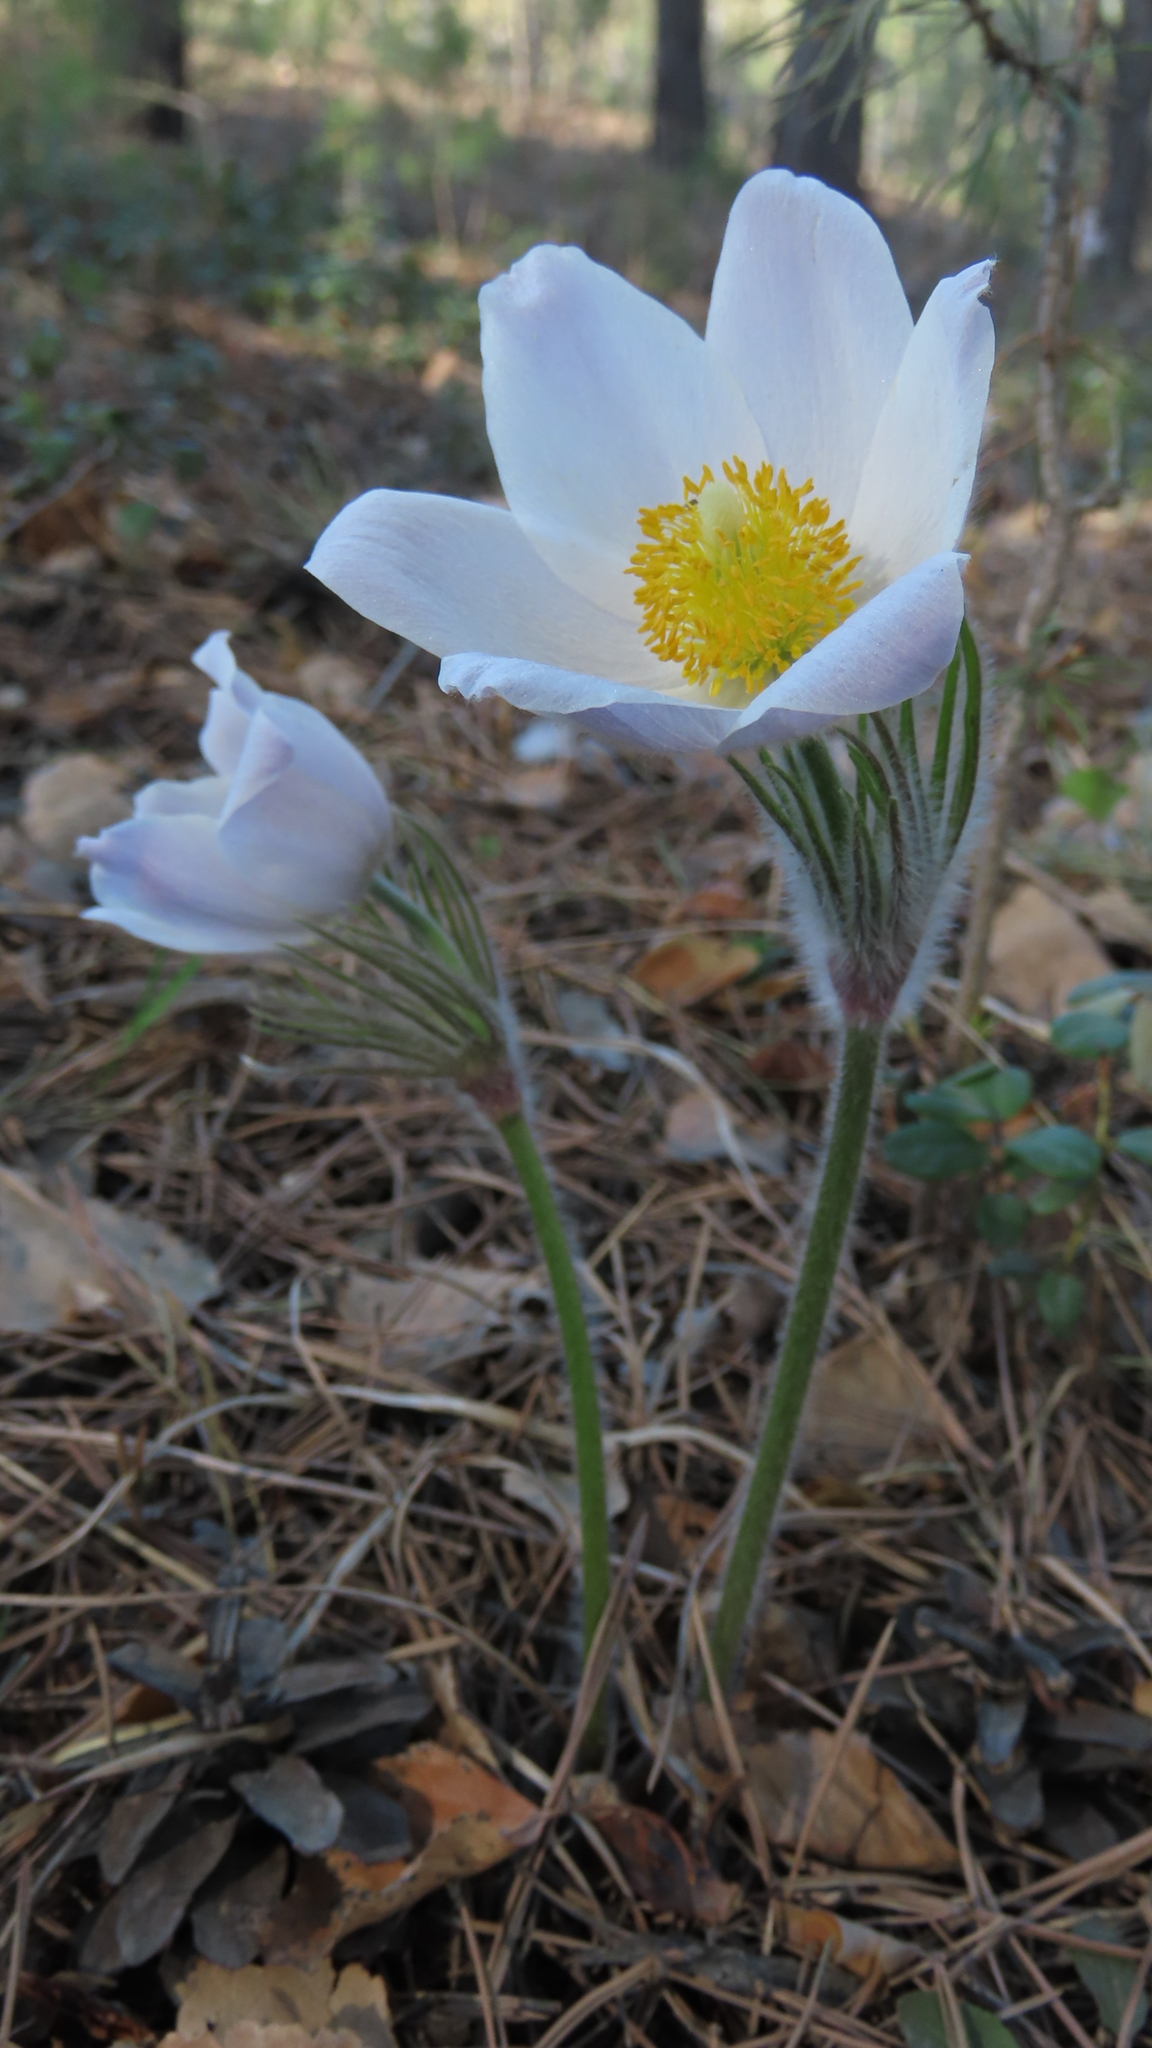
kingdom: Plantae
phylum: Tracheophyta
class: Magnoliopsida
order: Ranunculales
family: Ranunculaceae
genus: Pulsatilla
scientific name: Pulsatilla patens
